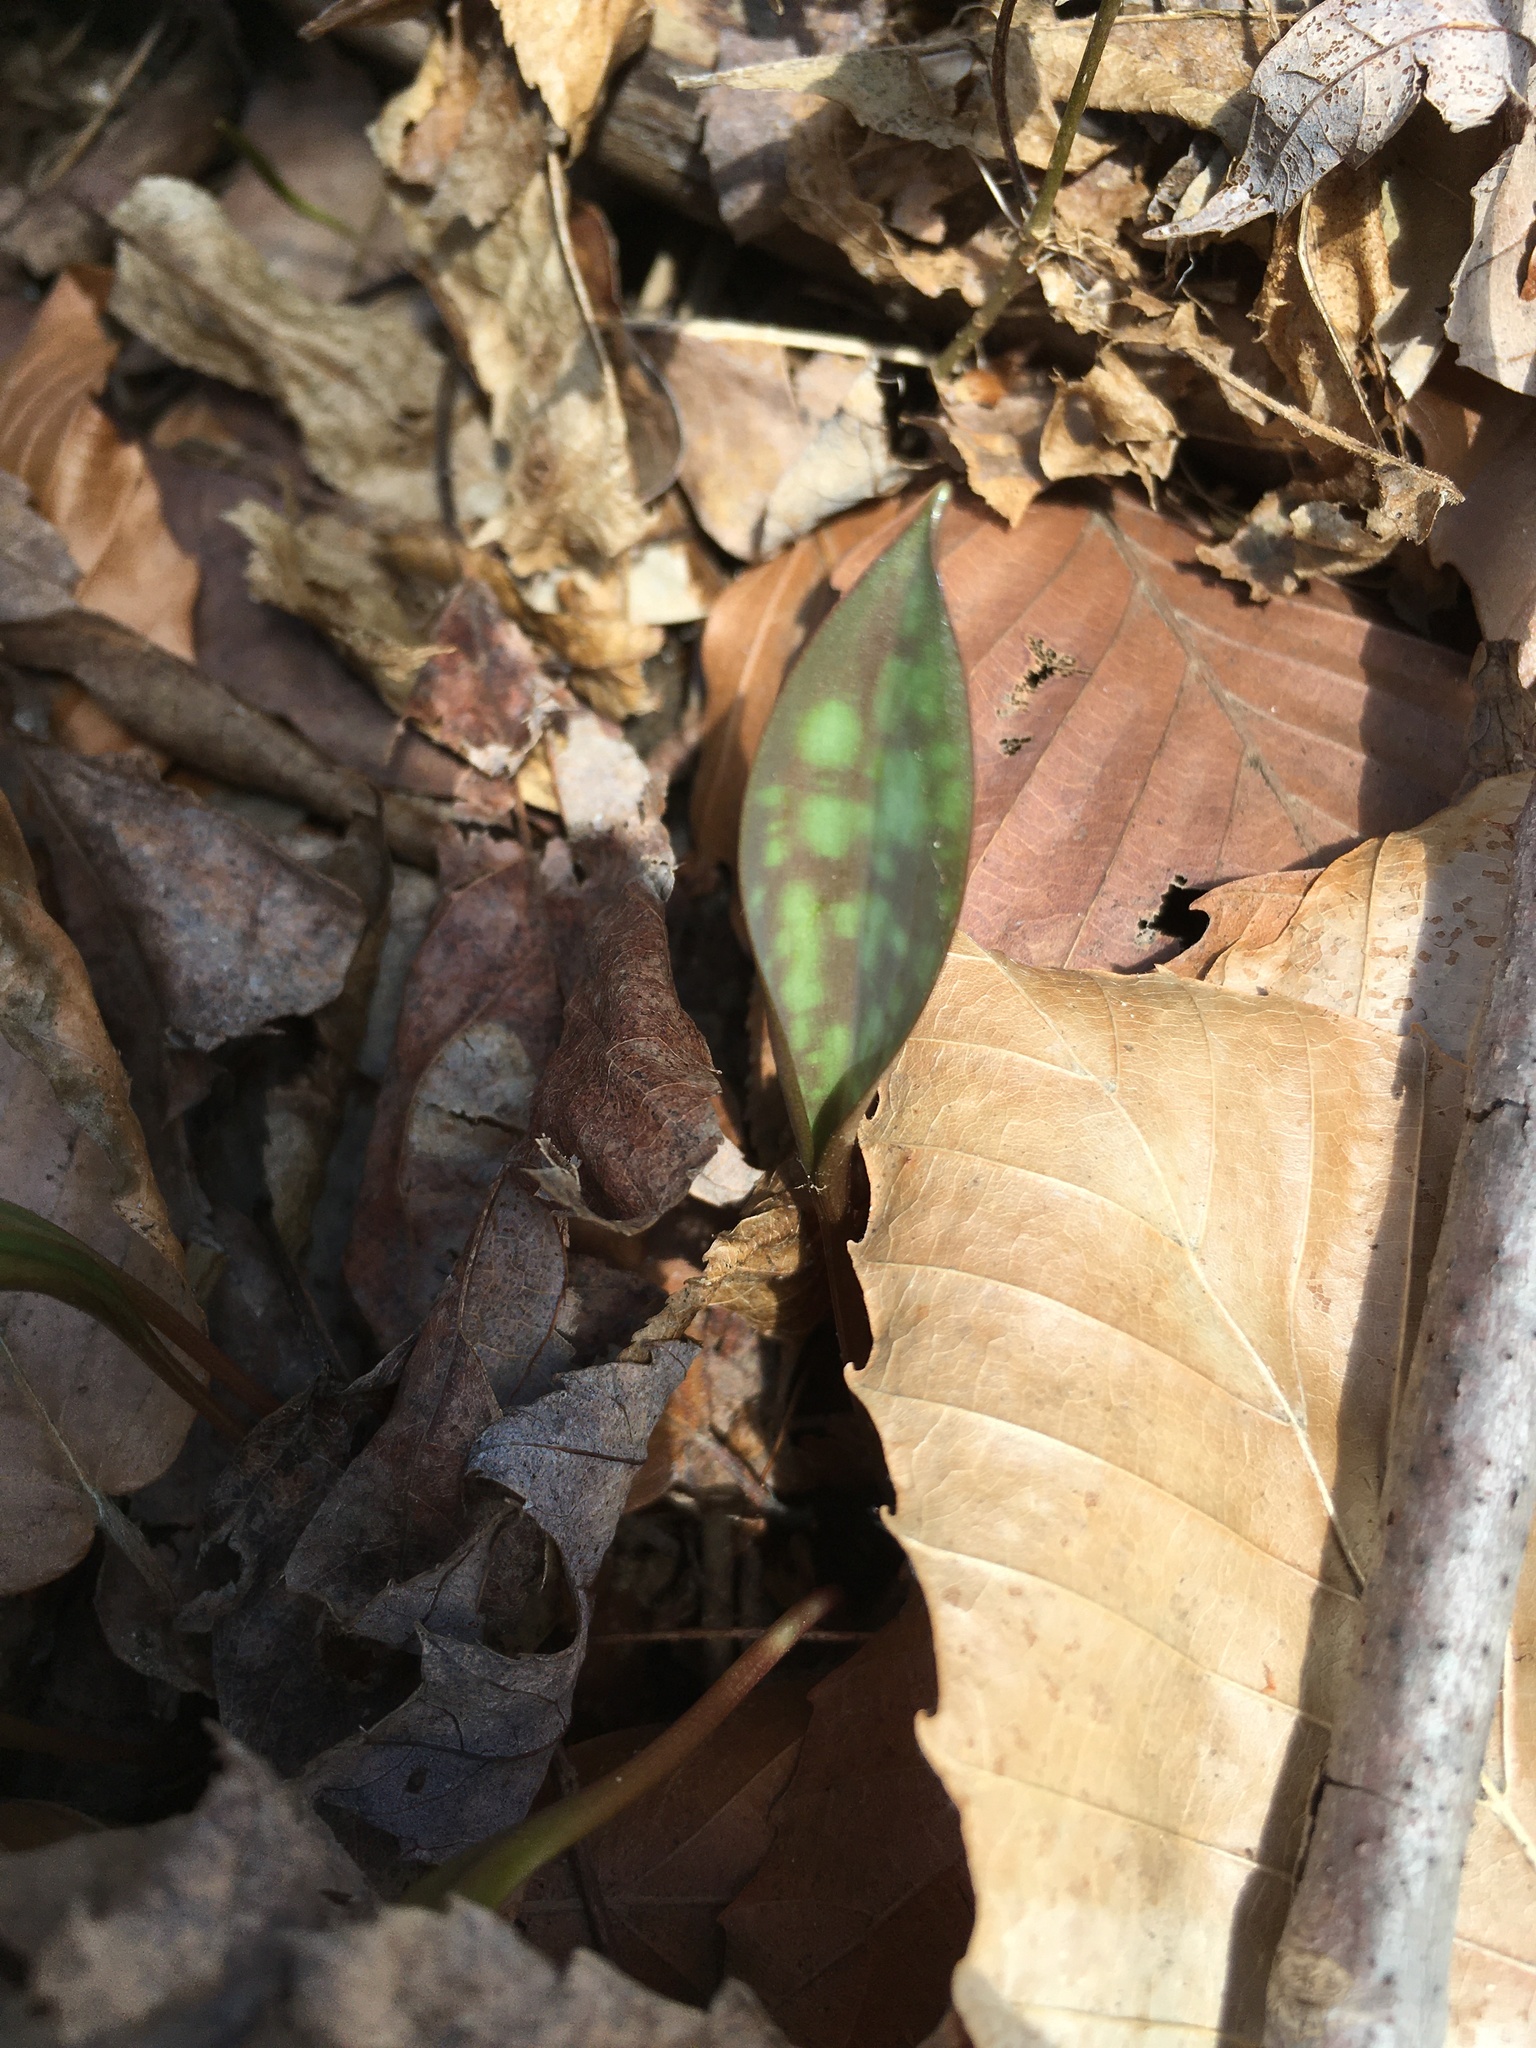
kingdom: Plantae
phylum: Tracheophyta
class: Liliopsida
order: Liliales
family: Liliaceae
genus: Erythronium
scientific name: Erythronium americanum
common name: Yellow adder's-tongue
